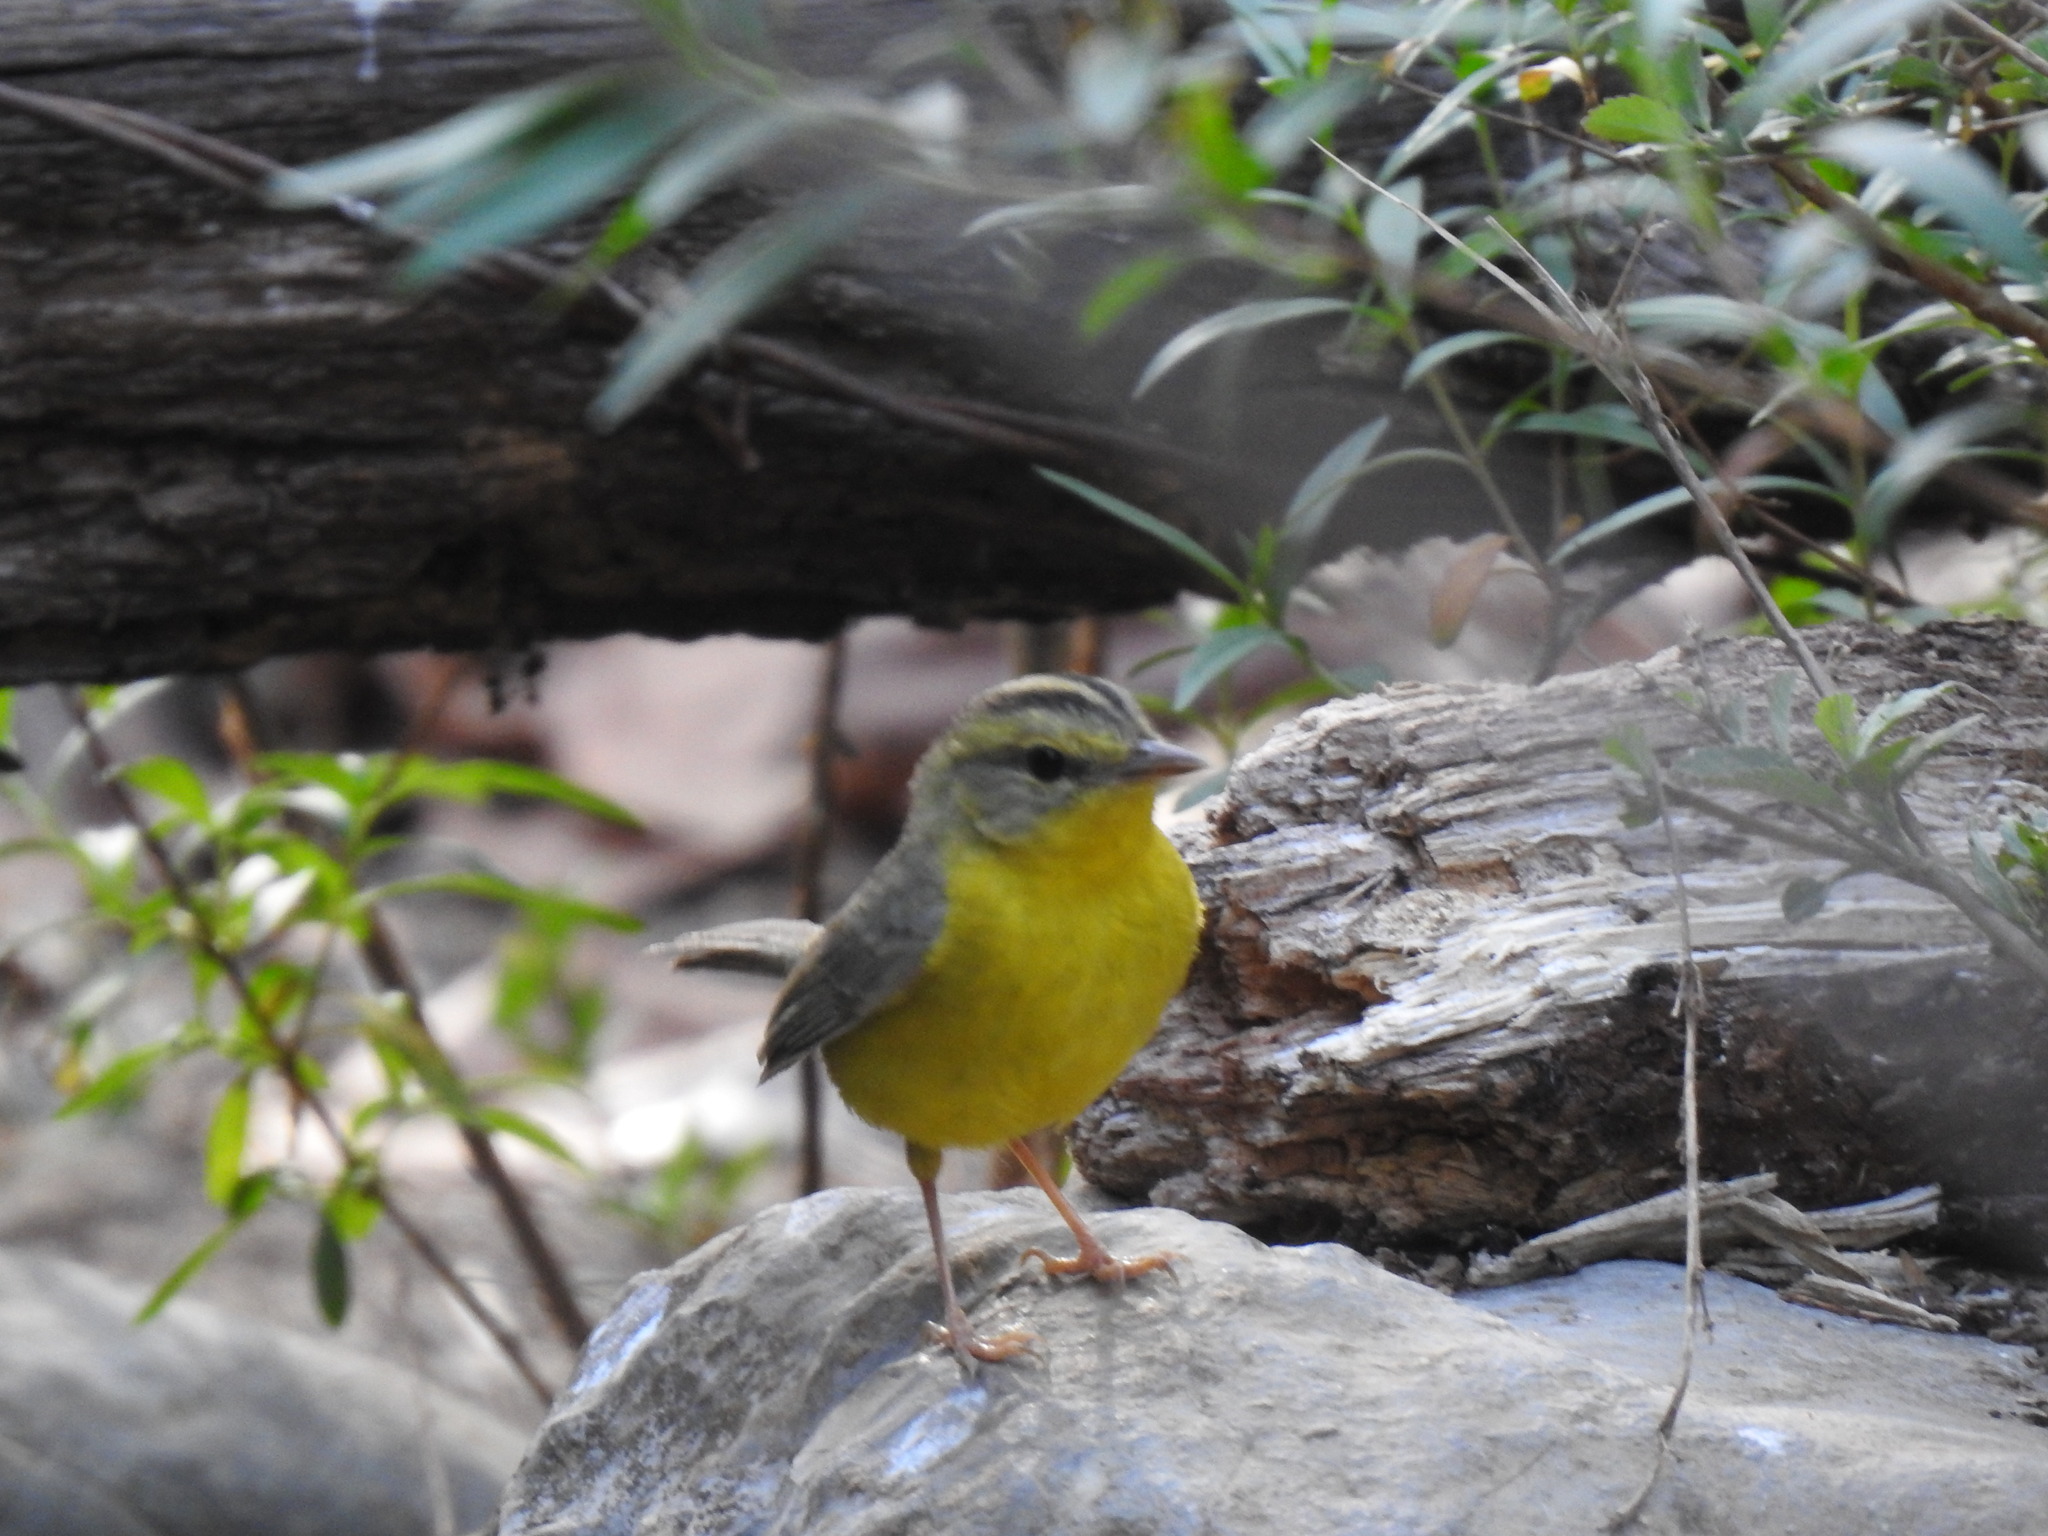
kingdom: Animalia
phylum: Chordata
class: Aves
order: Passeriformes
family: Parulidae
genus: Basileuterus
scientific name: Basileuterus culicivorus
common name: Golden-crowned warbler
